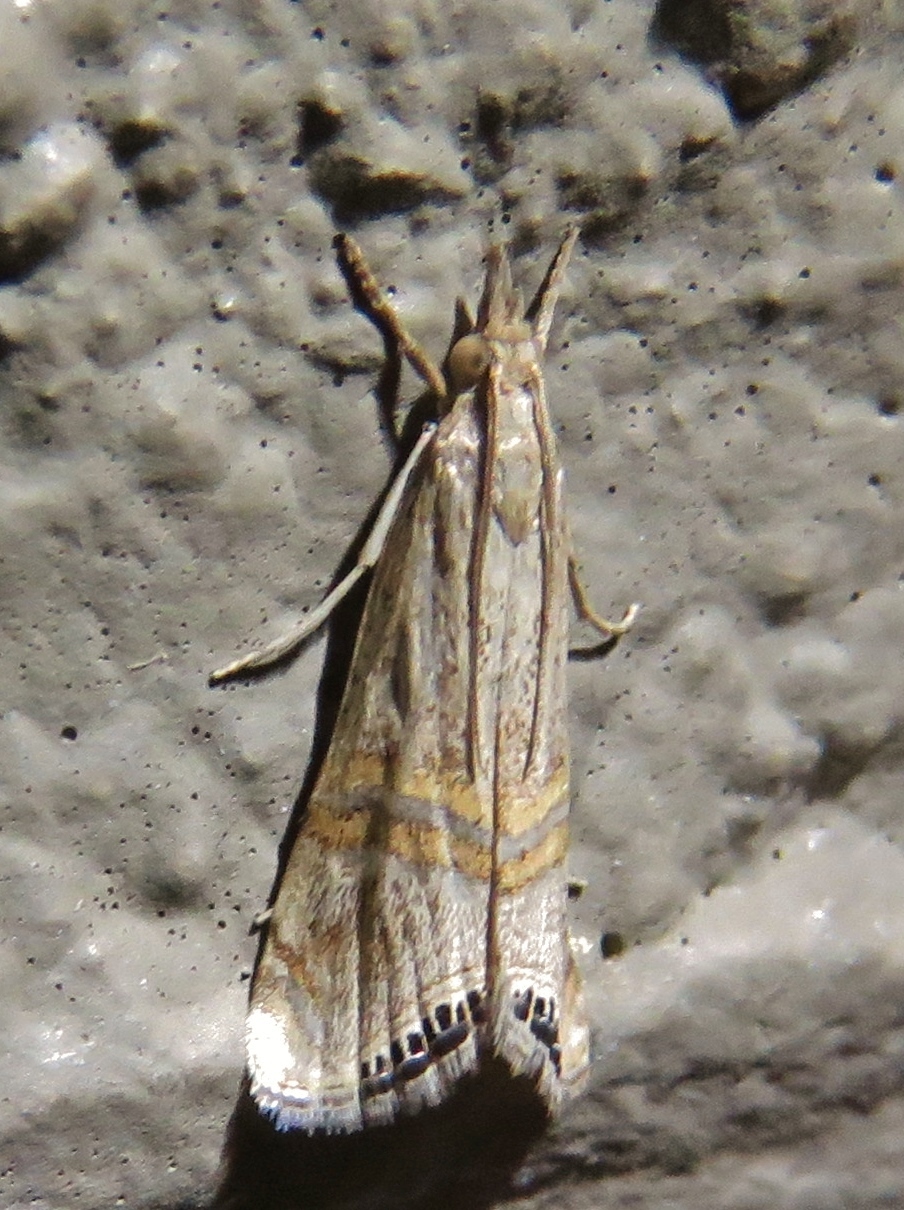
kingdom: Animalia
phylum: Arthropoda
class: Insecta
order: Lepidoptera
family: Crambidae
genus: Euchromius
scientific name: Euchromius ocellea
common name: Necklace veneer moth
